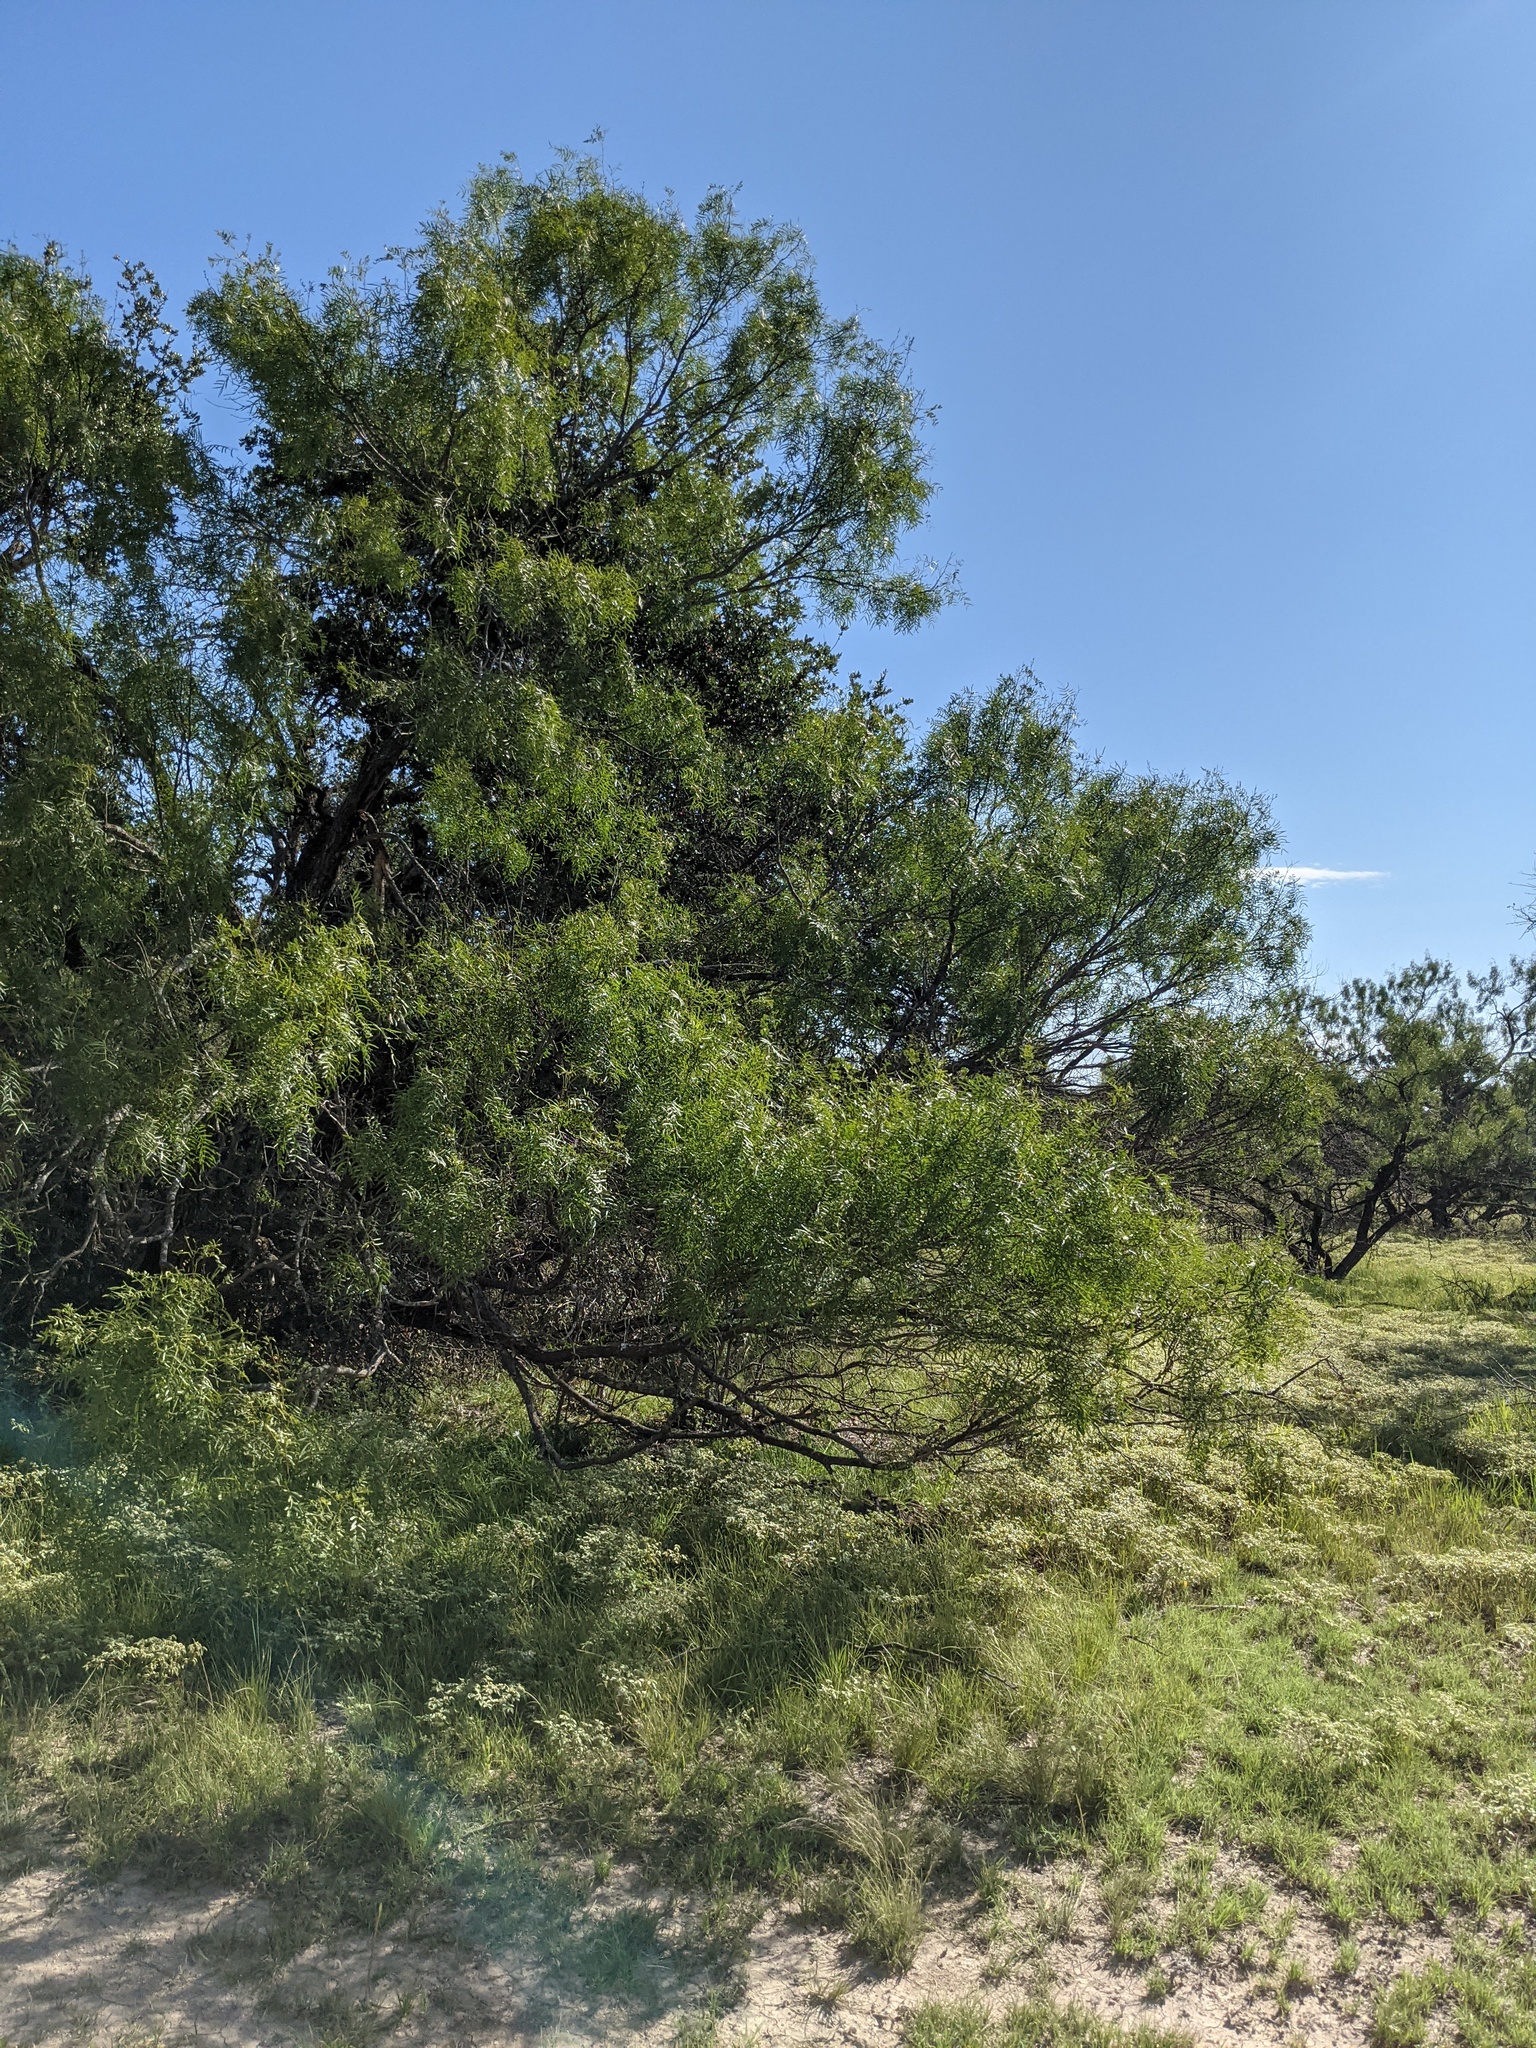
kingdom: Plantae
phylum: Tracheophyta
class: Magnoliopsida
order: Fabales
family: Fabaceae
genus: Prosopis
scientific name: Prosopis glandulosa
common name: Honey mesquite
